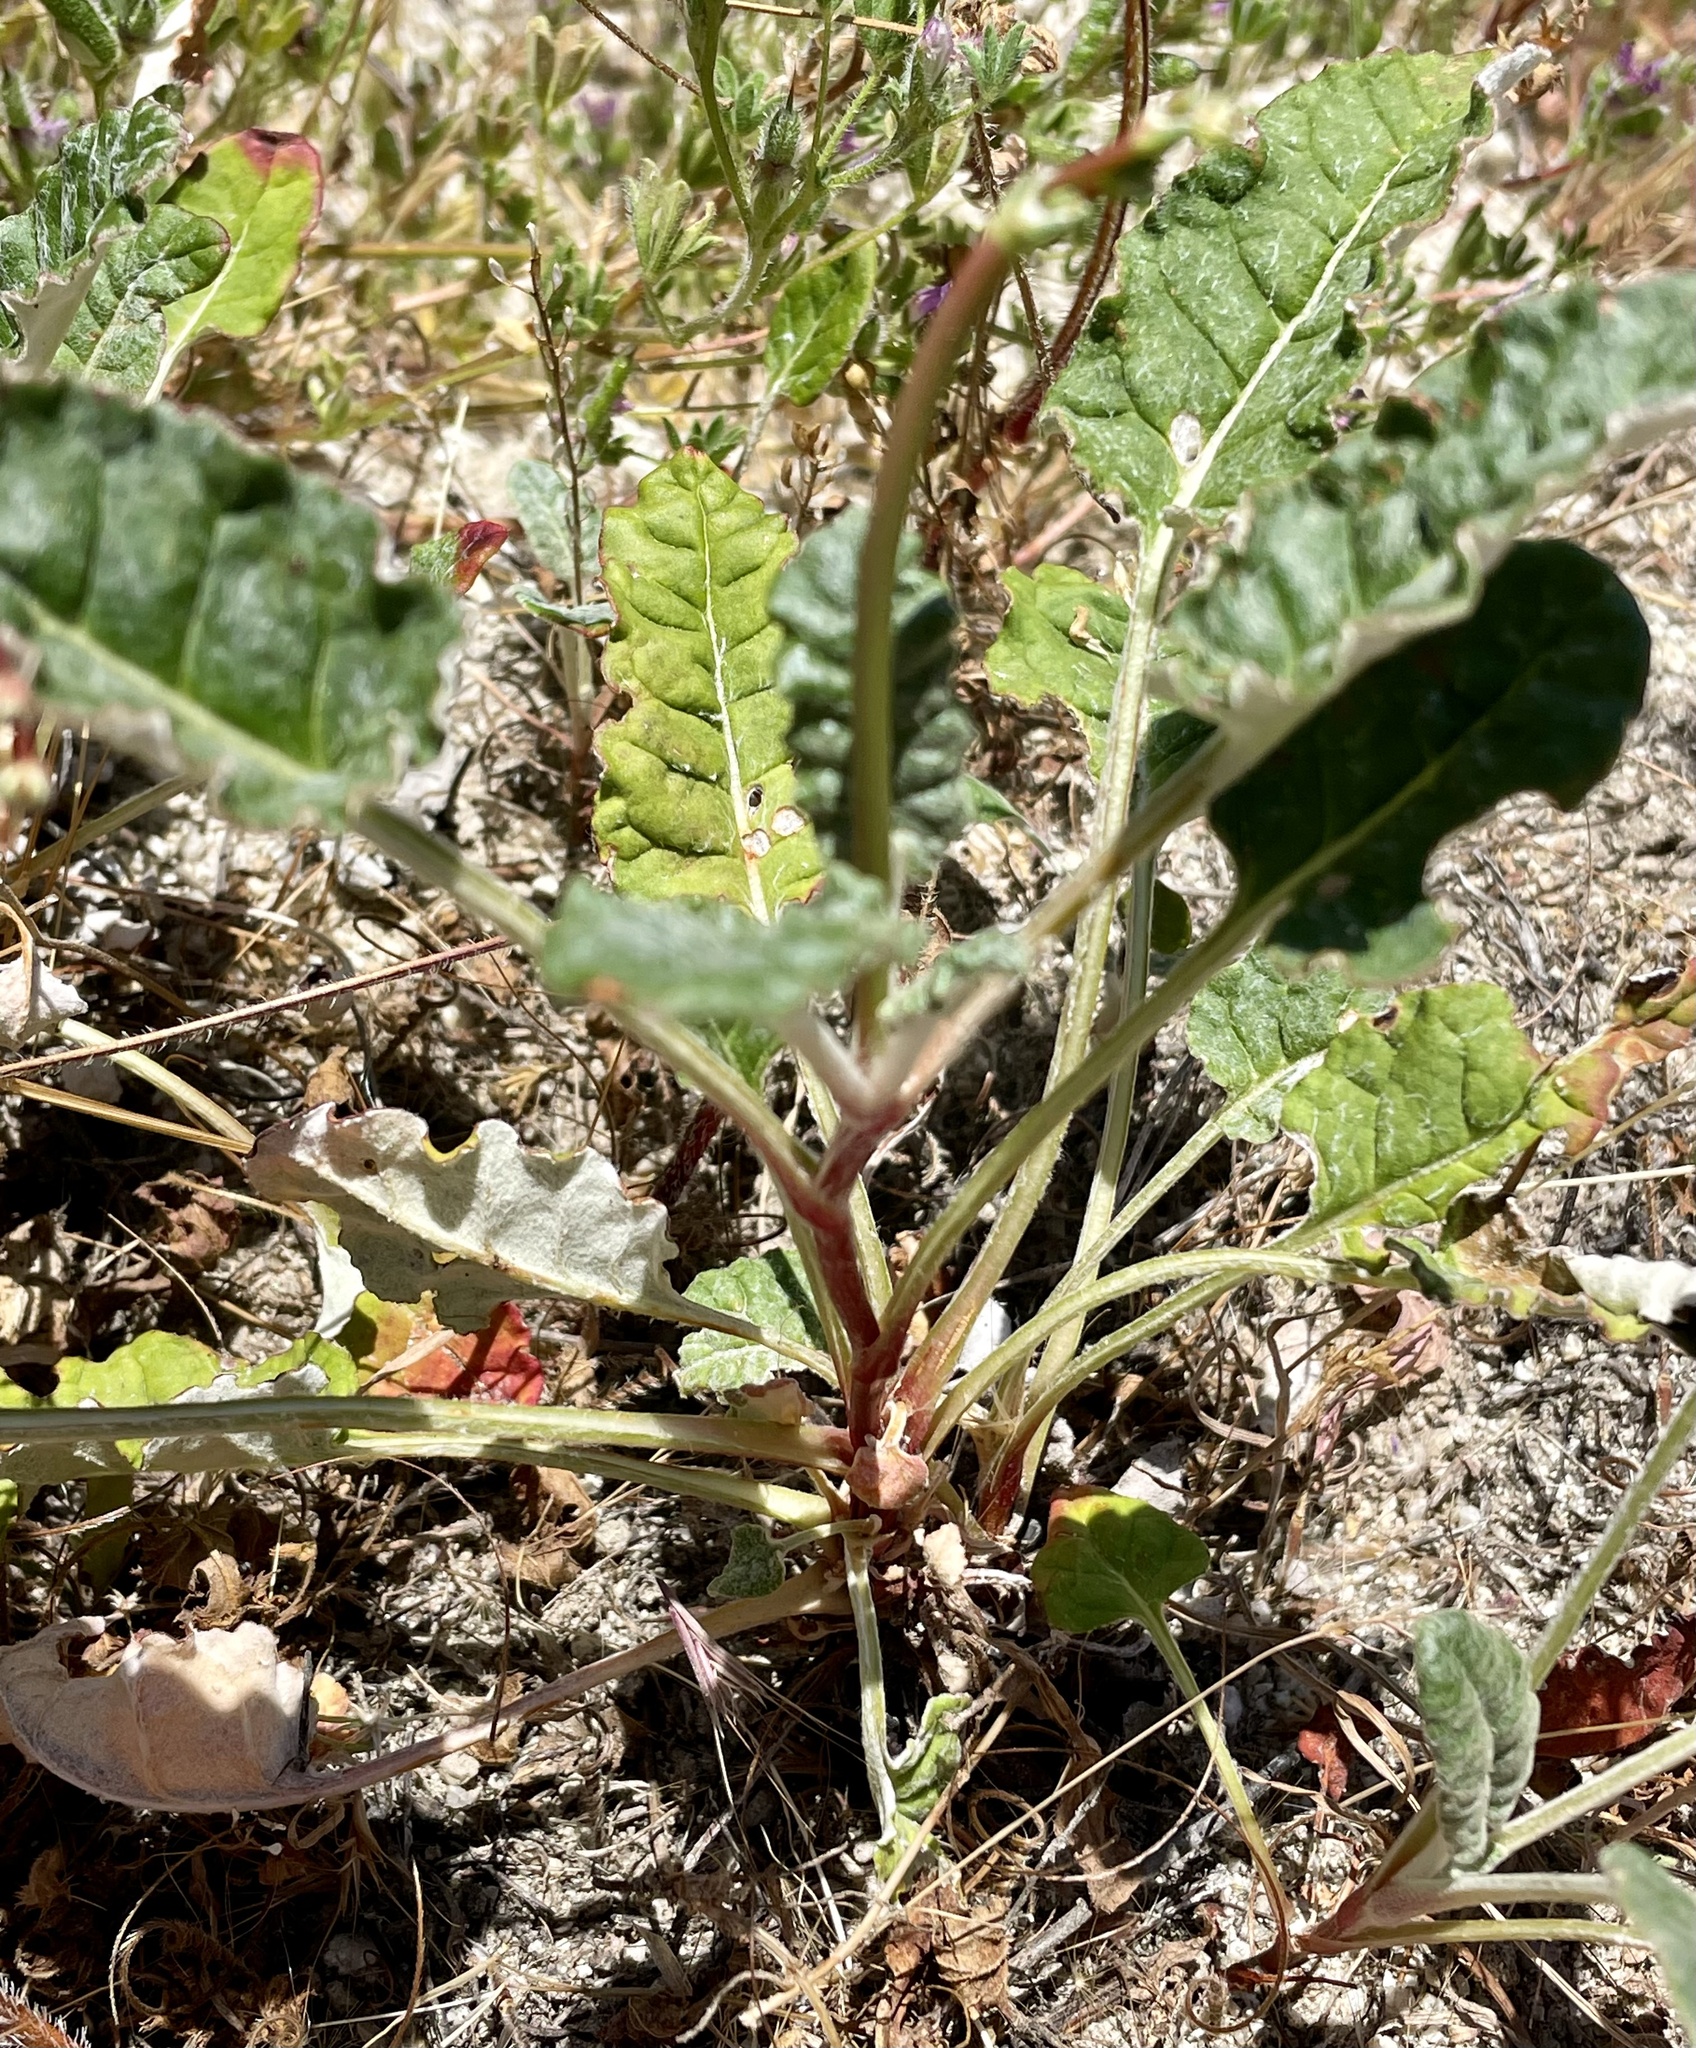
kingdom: Plantae
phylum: Tracheophyta
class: Magnoliopsida
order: Caryophyllales
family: Polygonaceae
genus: Eriogonum
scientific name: Eriogonum nudum
